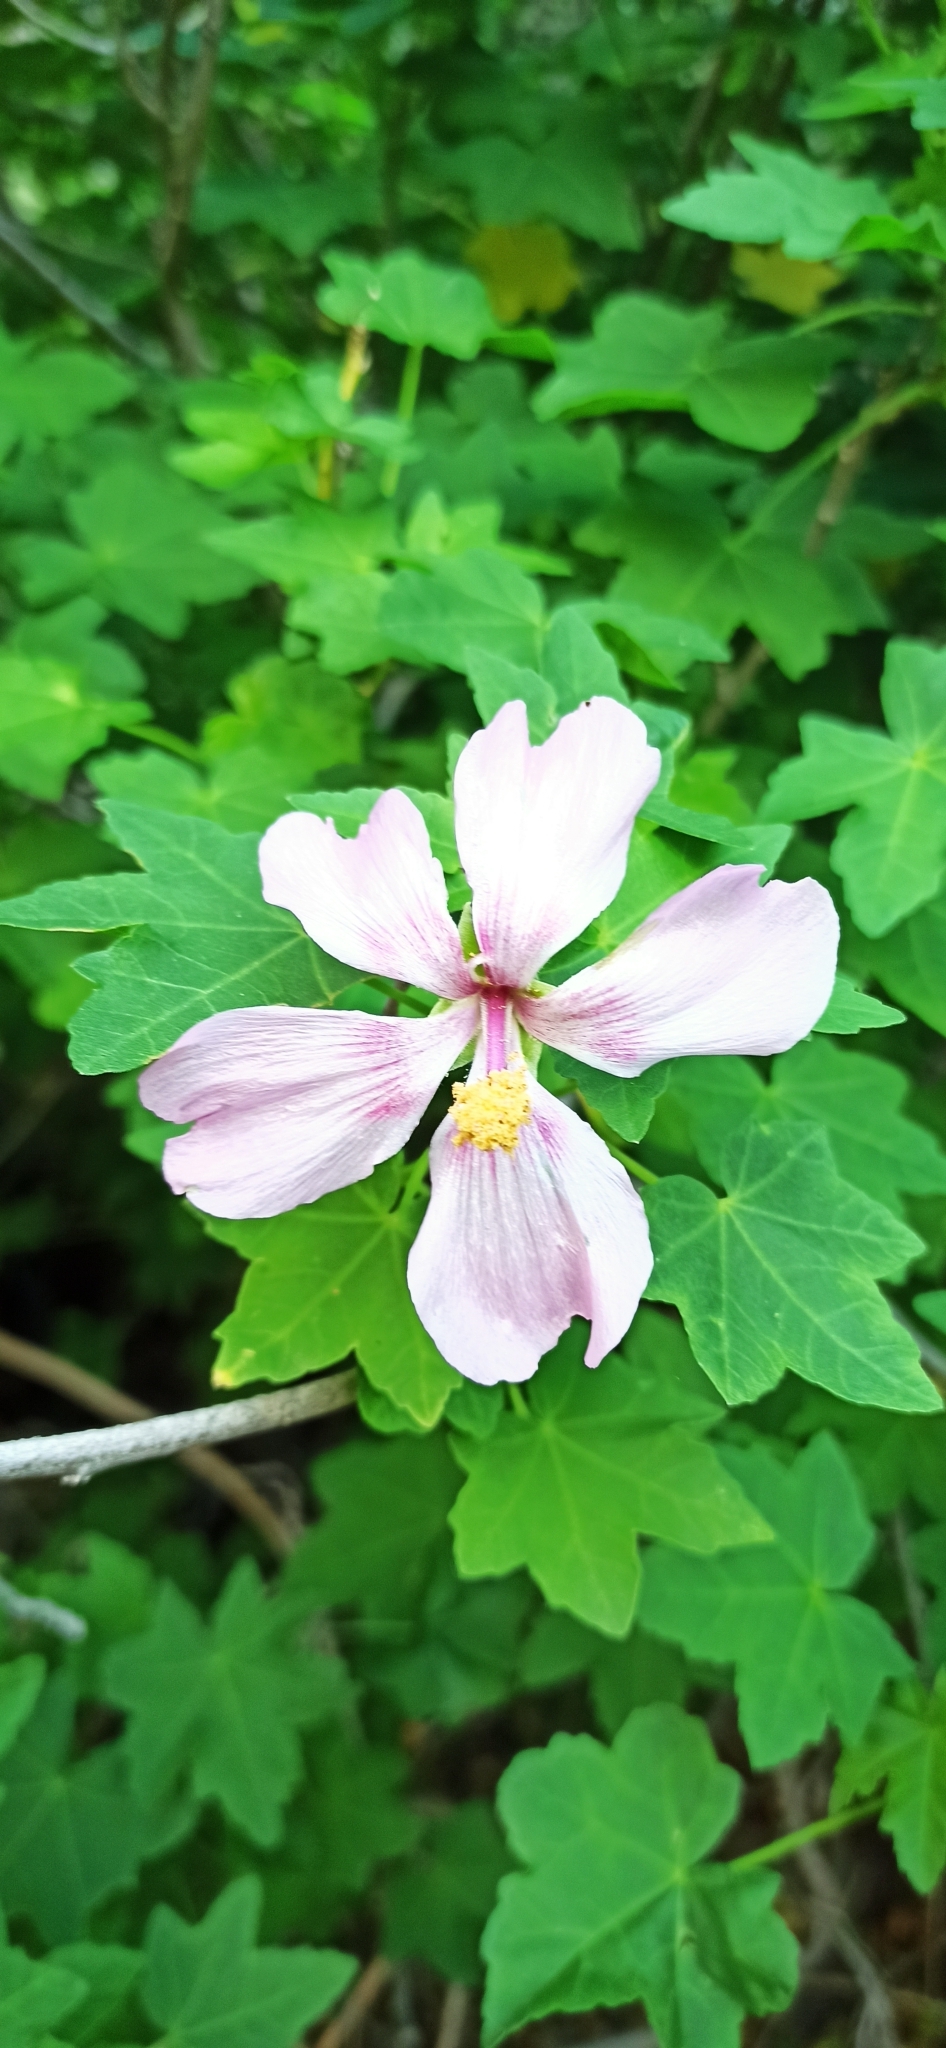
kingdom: Plantae
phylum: Tracheophyta
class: Magnoliopsida
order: Malvales
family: Malvaceae
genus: Malva
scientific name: Malva acerifolia
